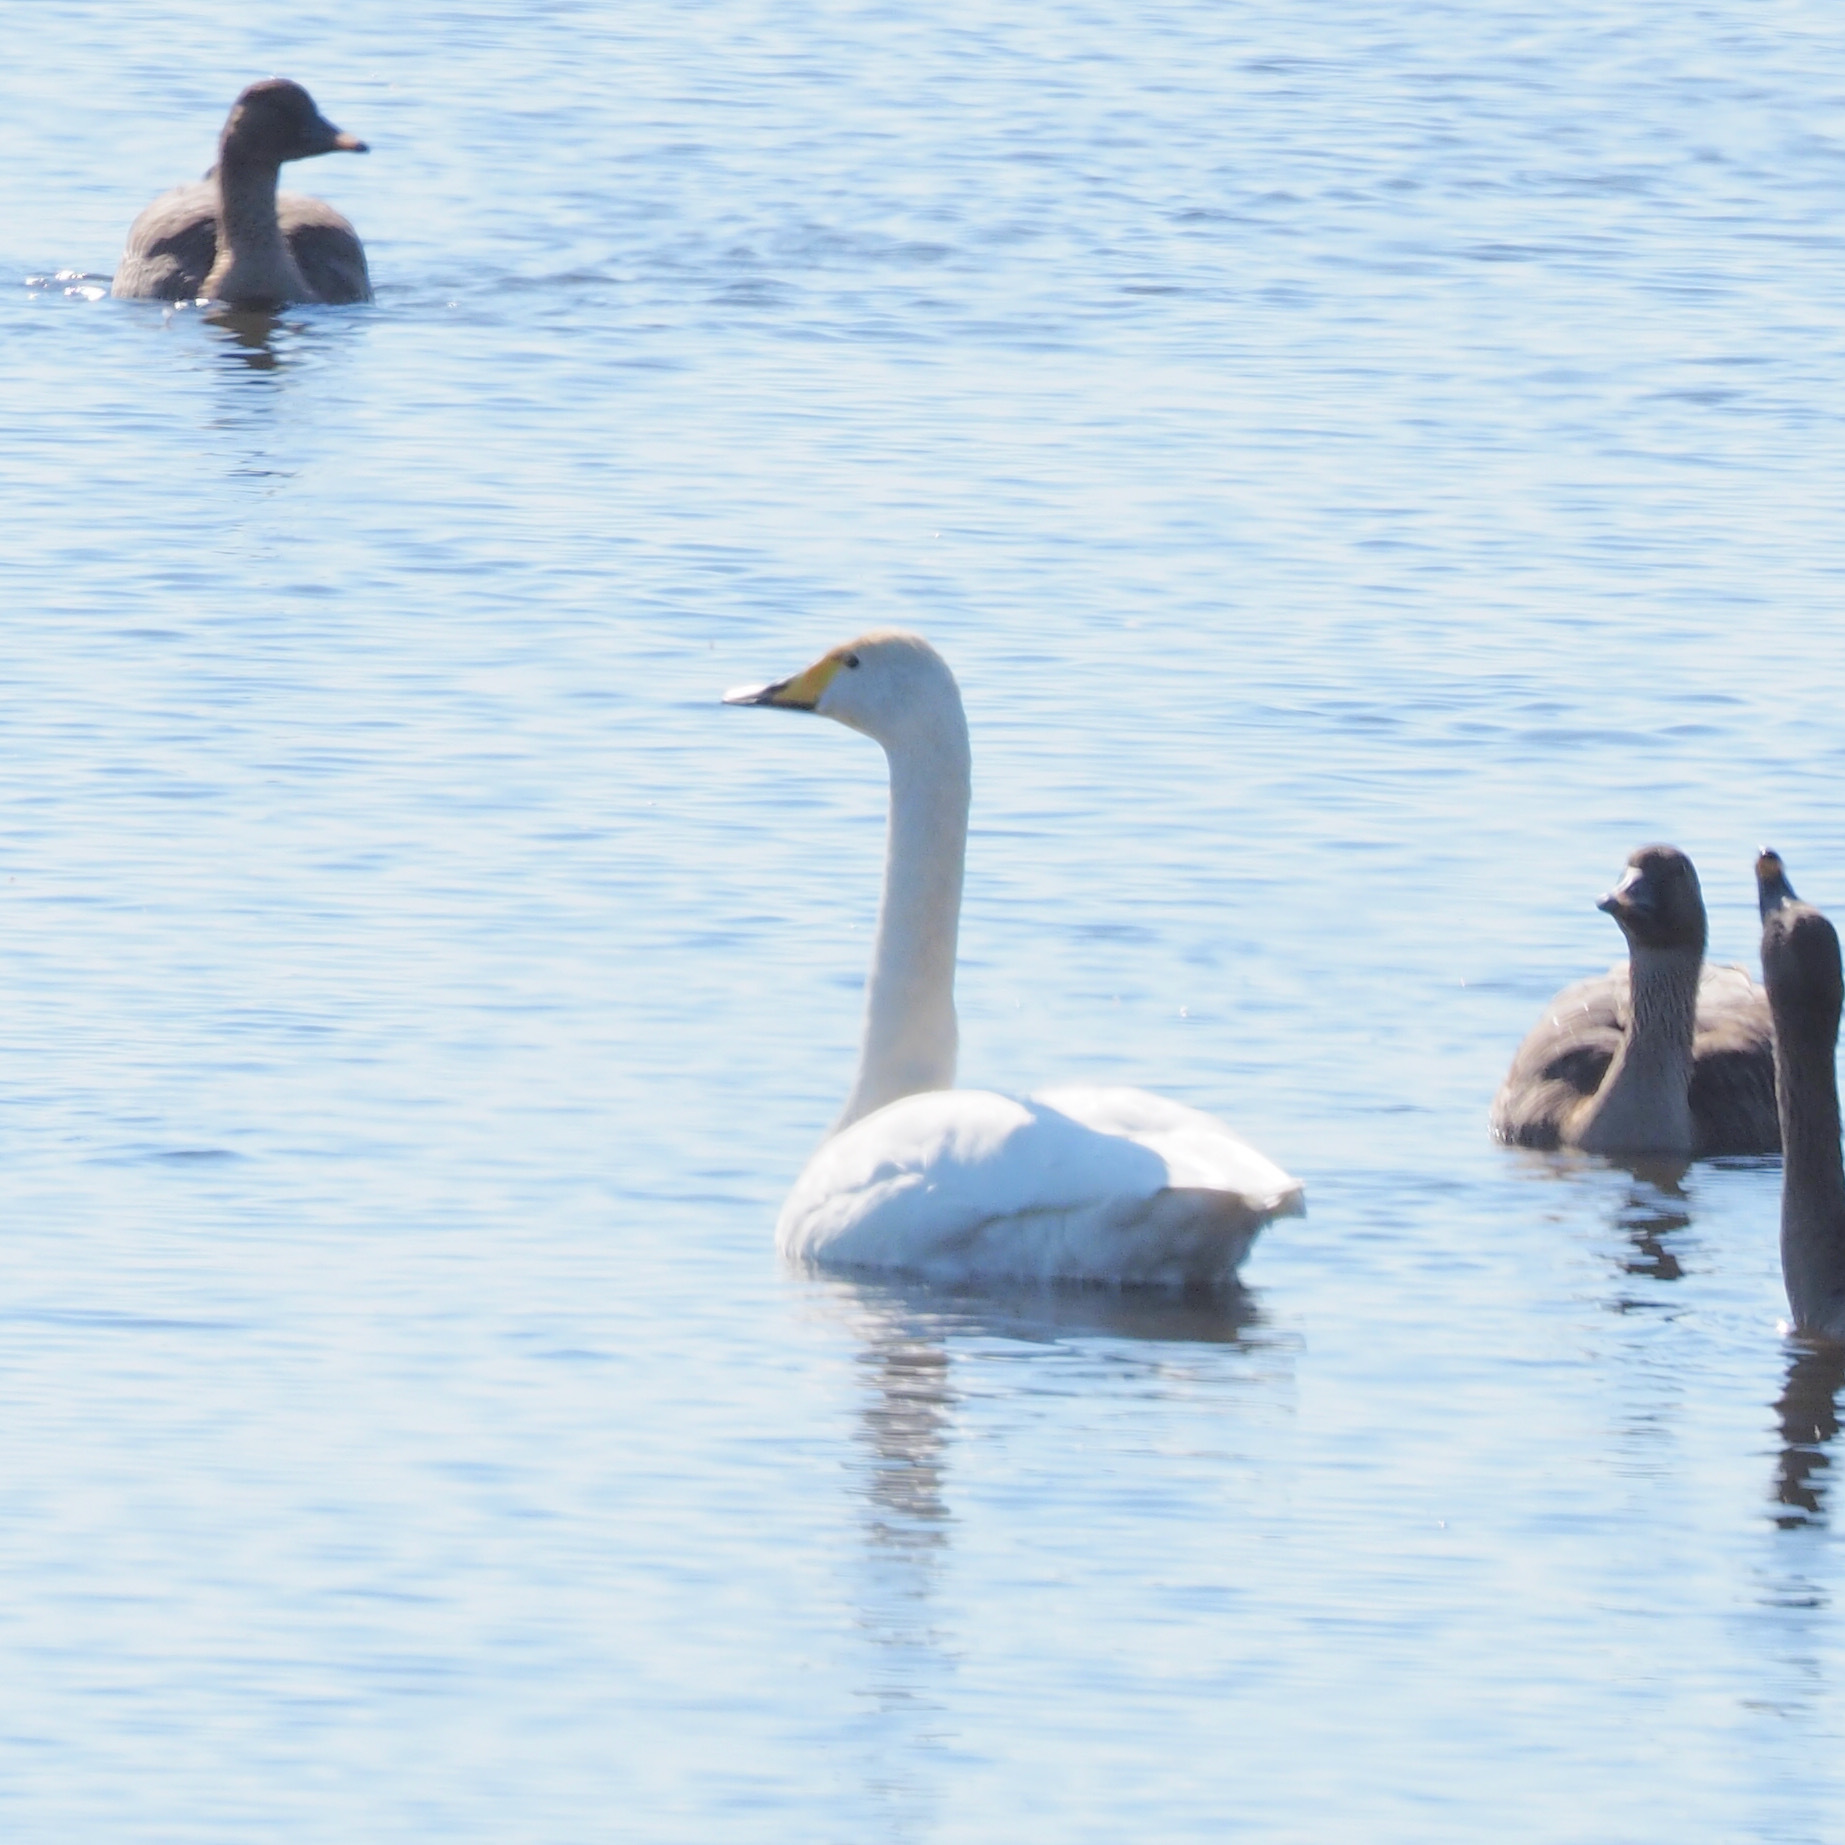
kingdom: Animalia
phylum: Chordata
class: Aves
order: Anseriformes
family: Anatidae
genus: Cygnus
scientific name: Cygnus cygnus
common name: Whooper swan
